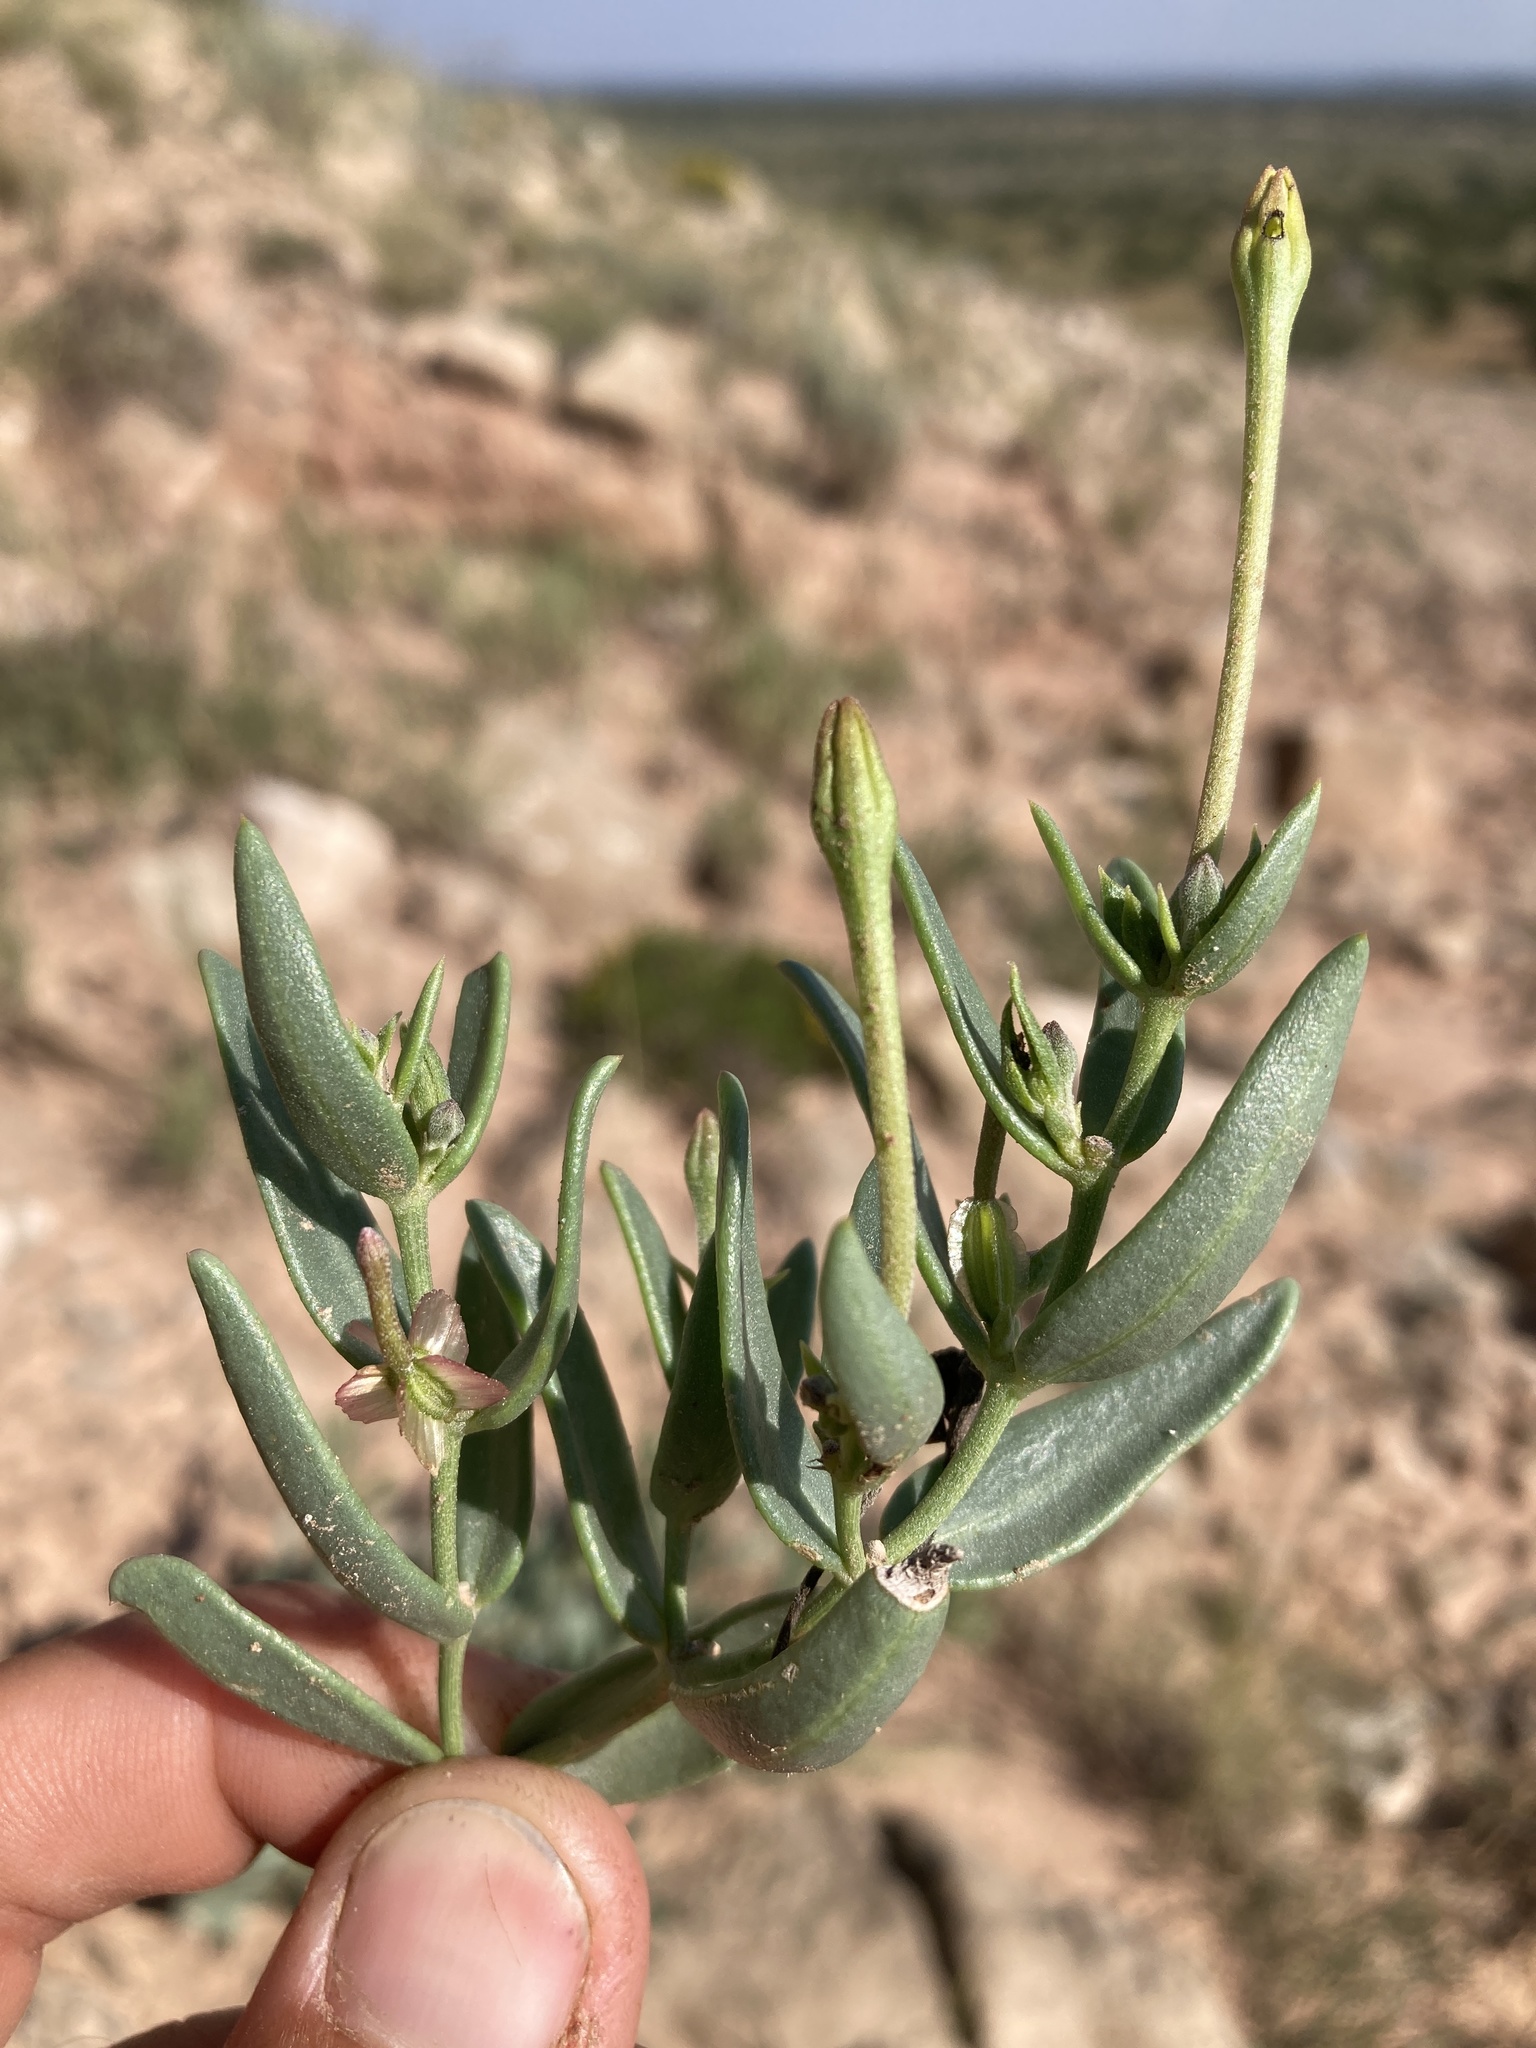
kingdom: Plantae
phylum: Tracheophyta
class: Magnoliopsida
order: Caryophyllales
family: Nyctaginaceae
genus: Acleisanthes
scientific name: Acleisanthes lanceolata
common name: Gypsum moonpod
